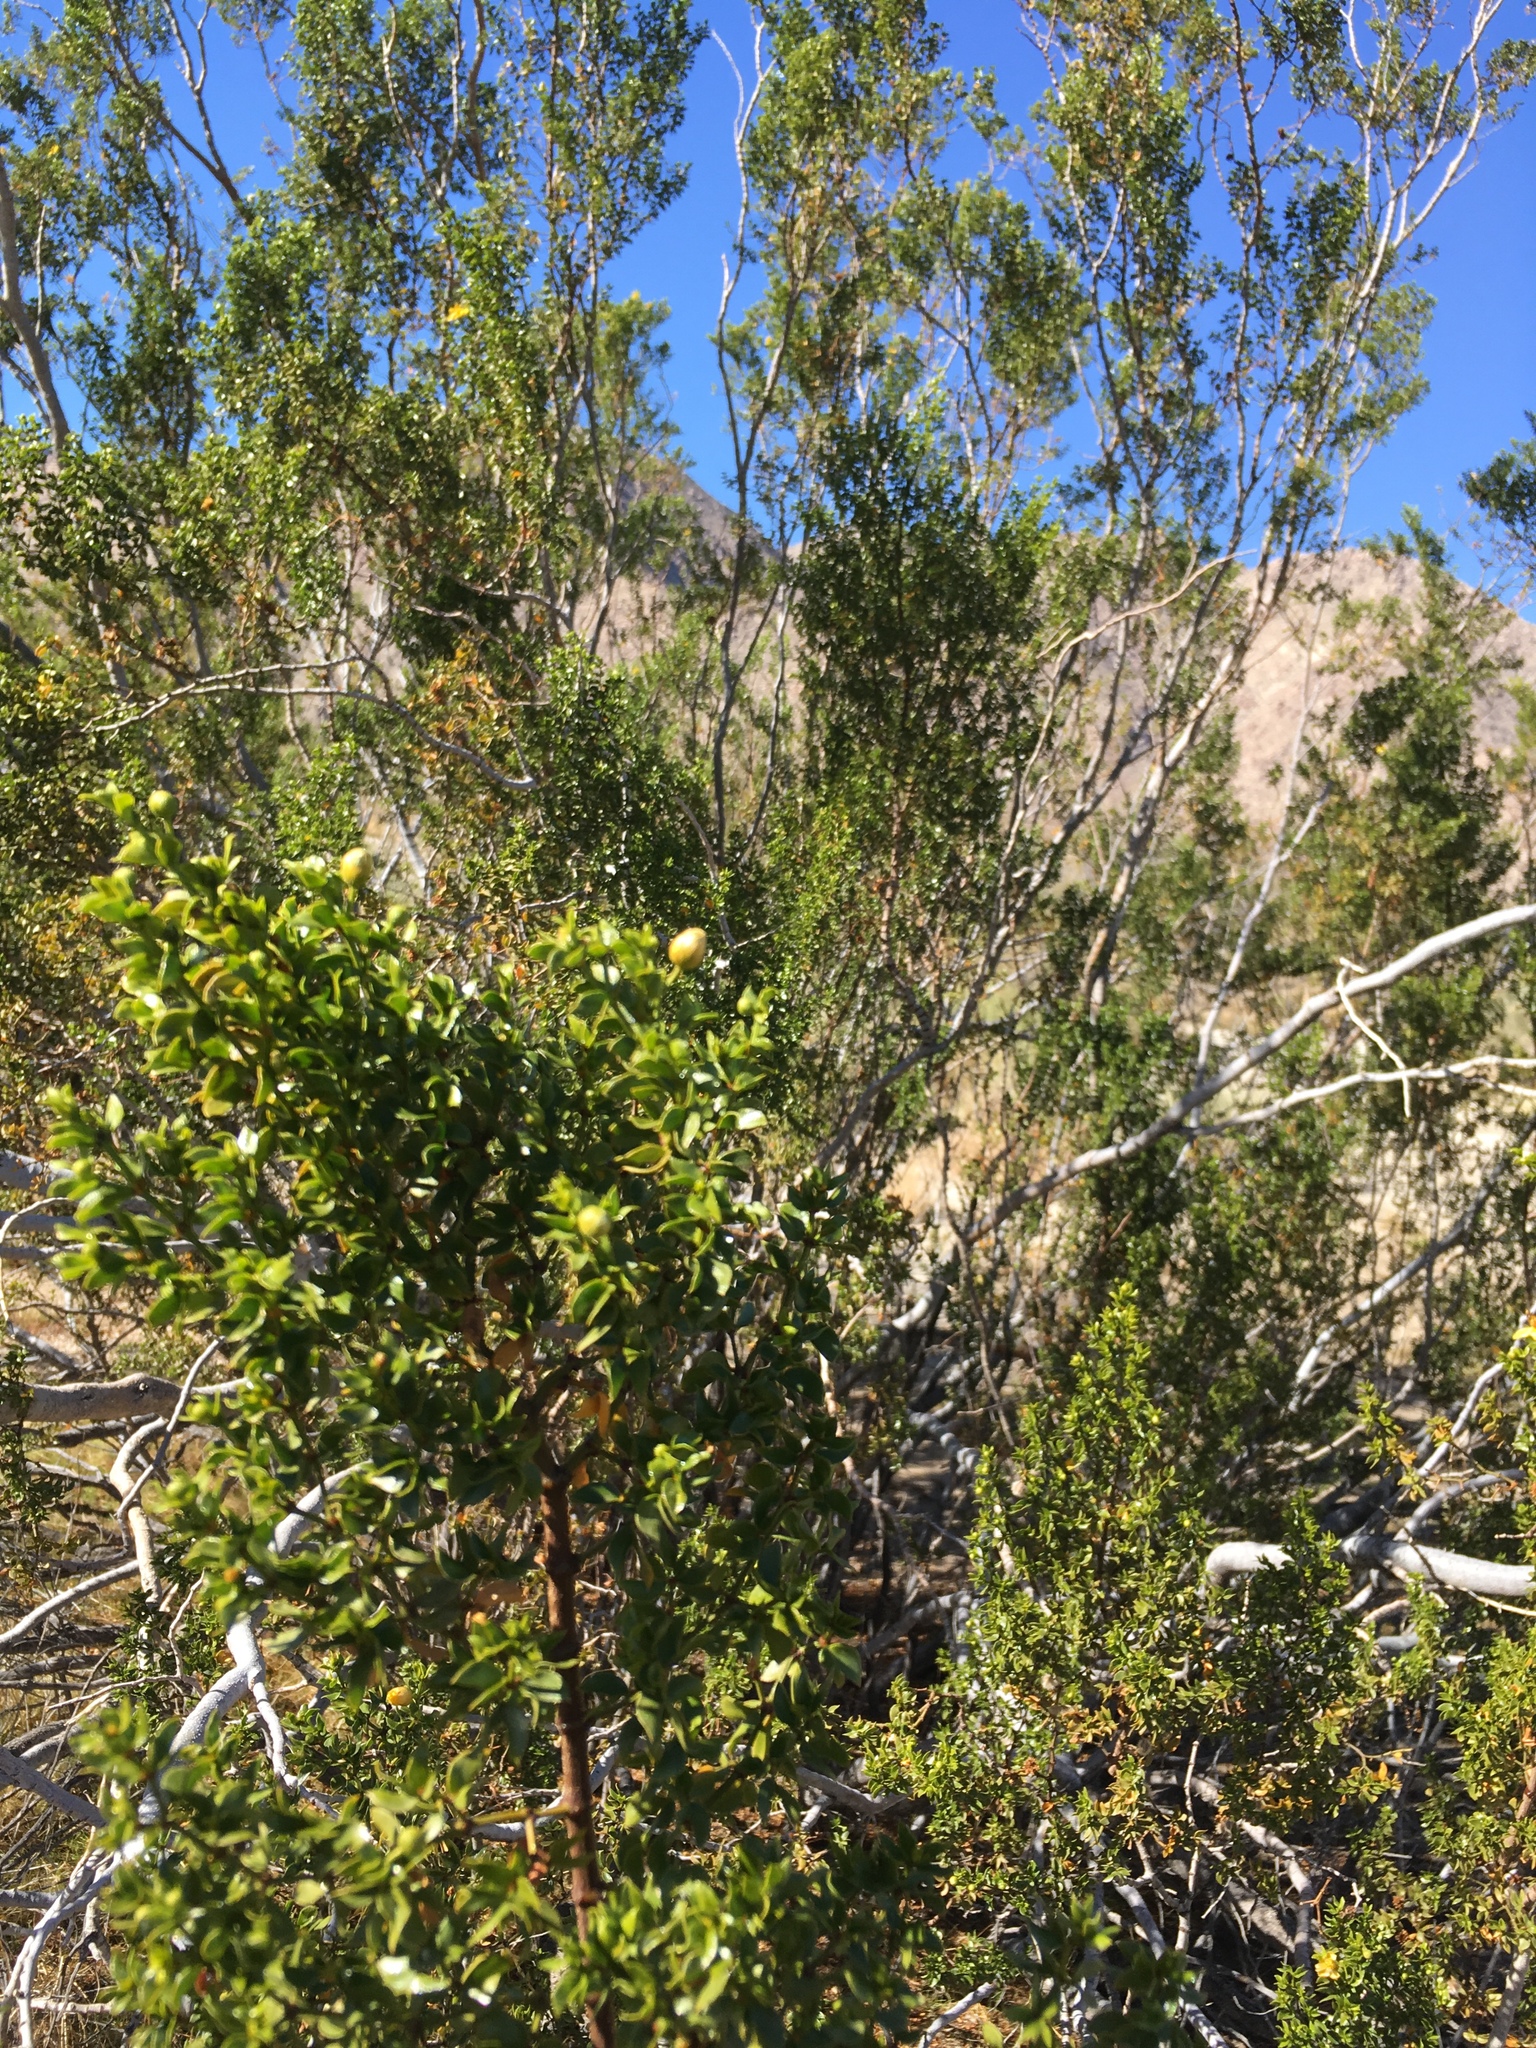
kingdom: Plantae
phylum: Tracheophyta
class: Magnoliopsida
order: Zygophyllales
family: Zygophyllaceae
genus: Larrea
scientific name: Larrea tridentata
